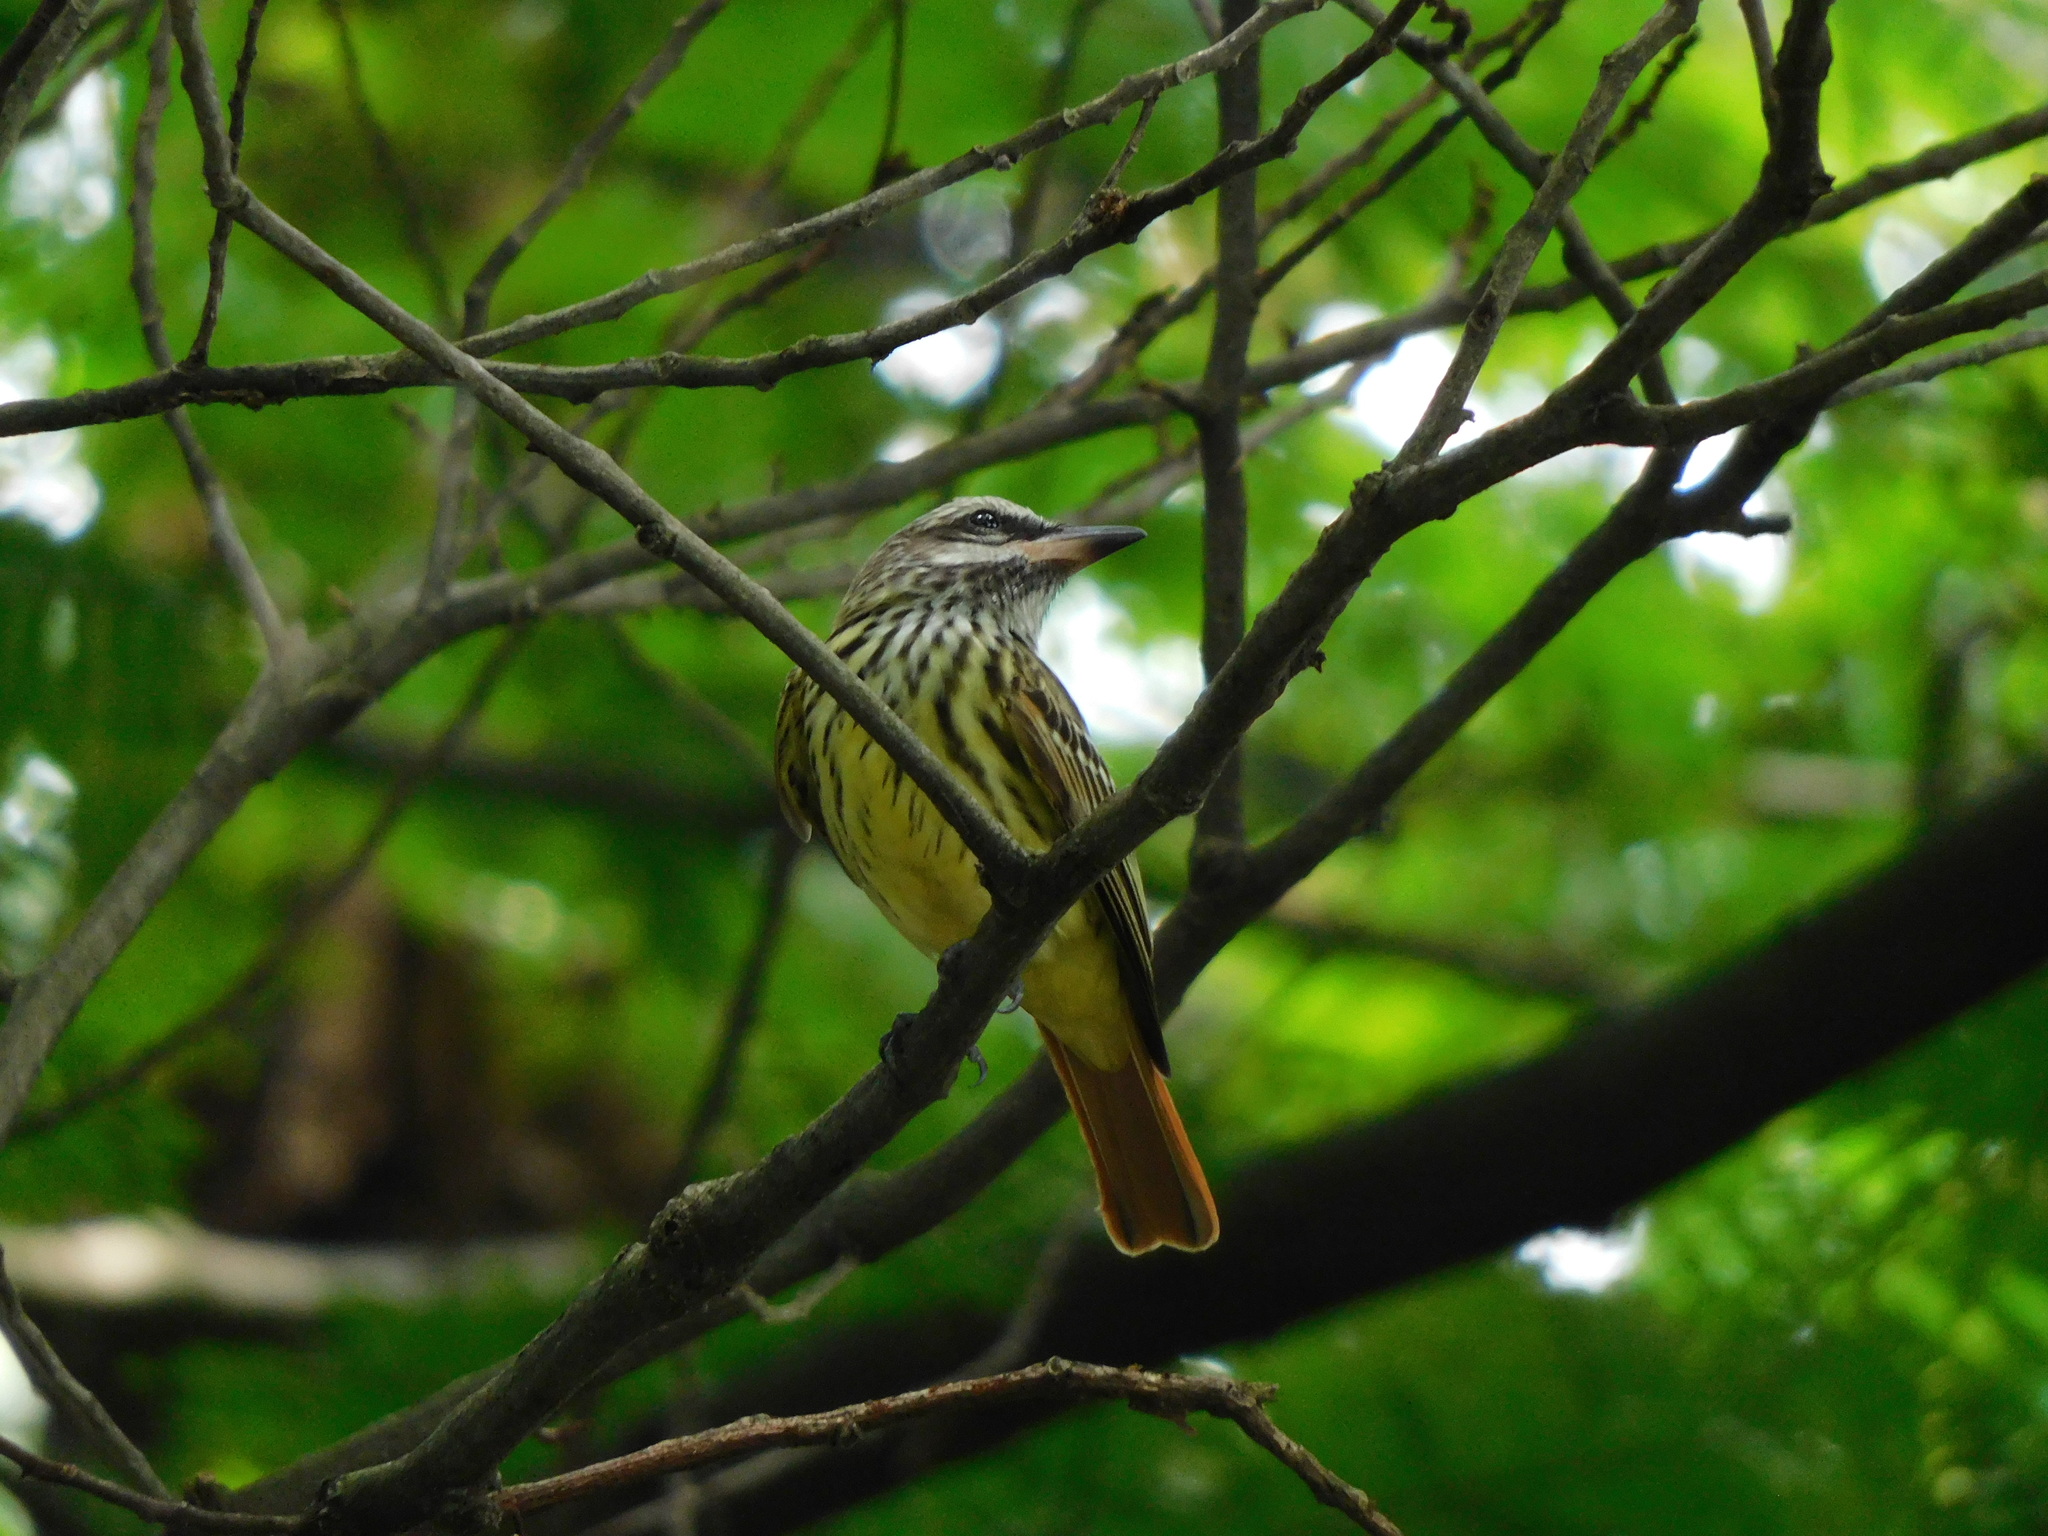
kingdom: Animalia
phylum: Chordata
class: Aves
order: Passeriformes
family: Tyrannidae
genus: Myiodynastes
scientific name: Myiodynastes luteiventris
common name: Sulphur-bellied flycatcher
